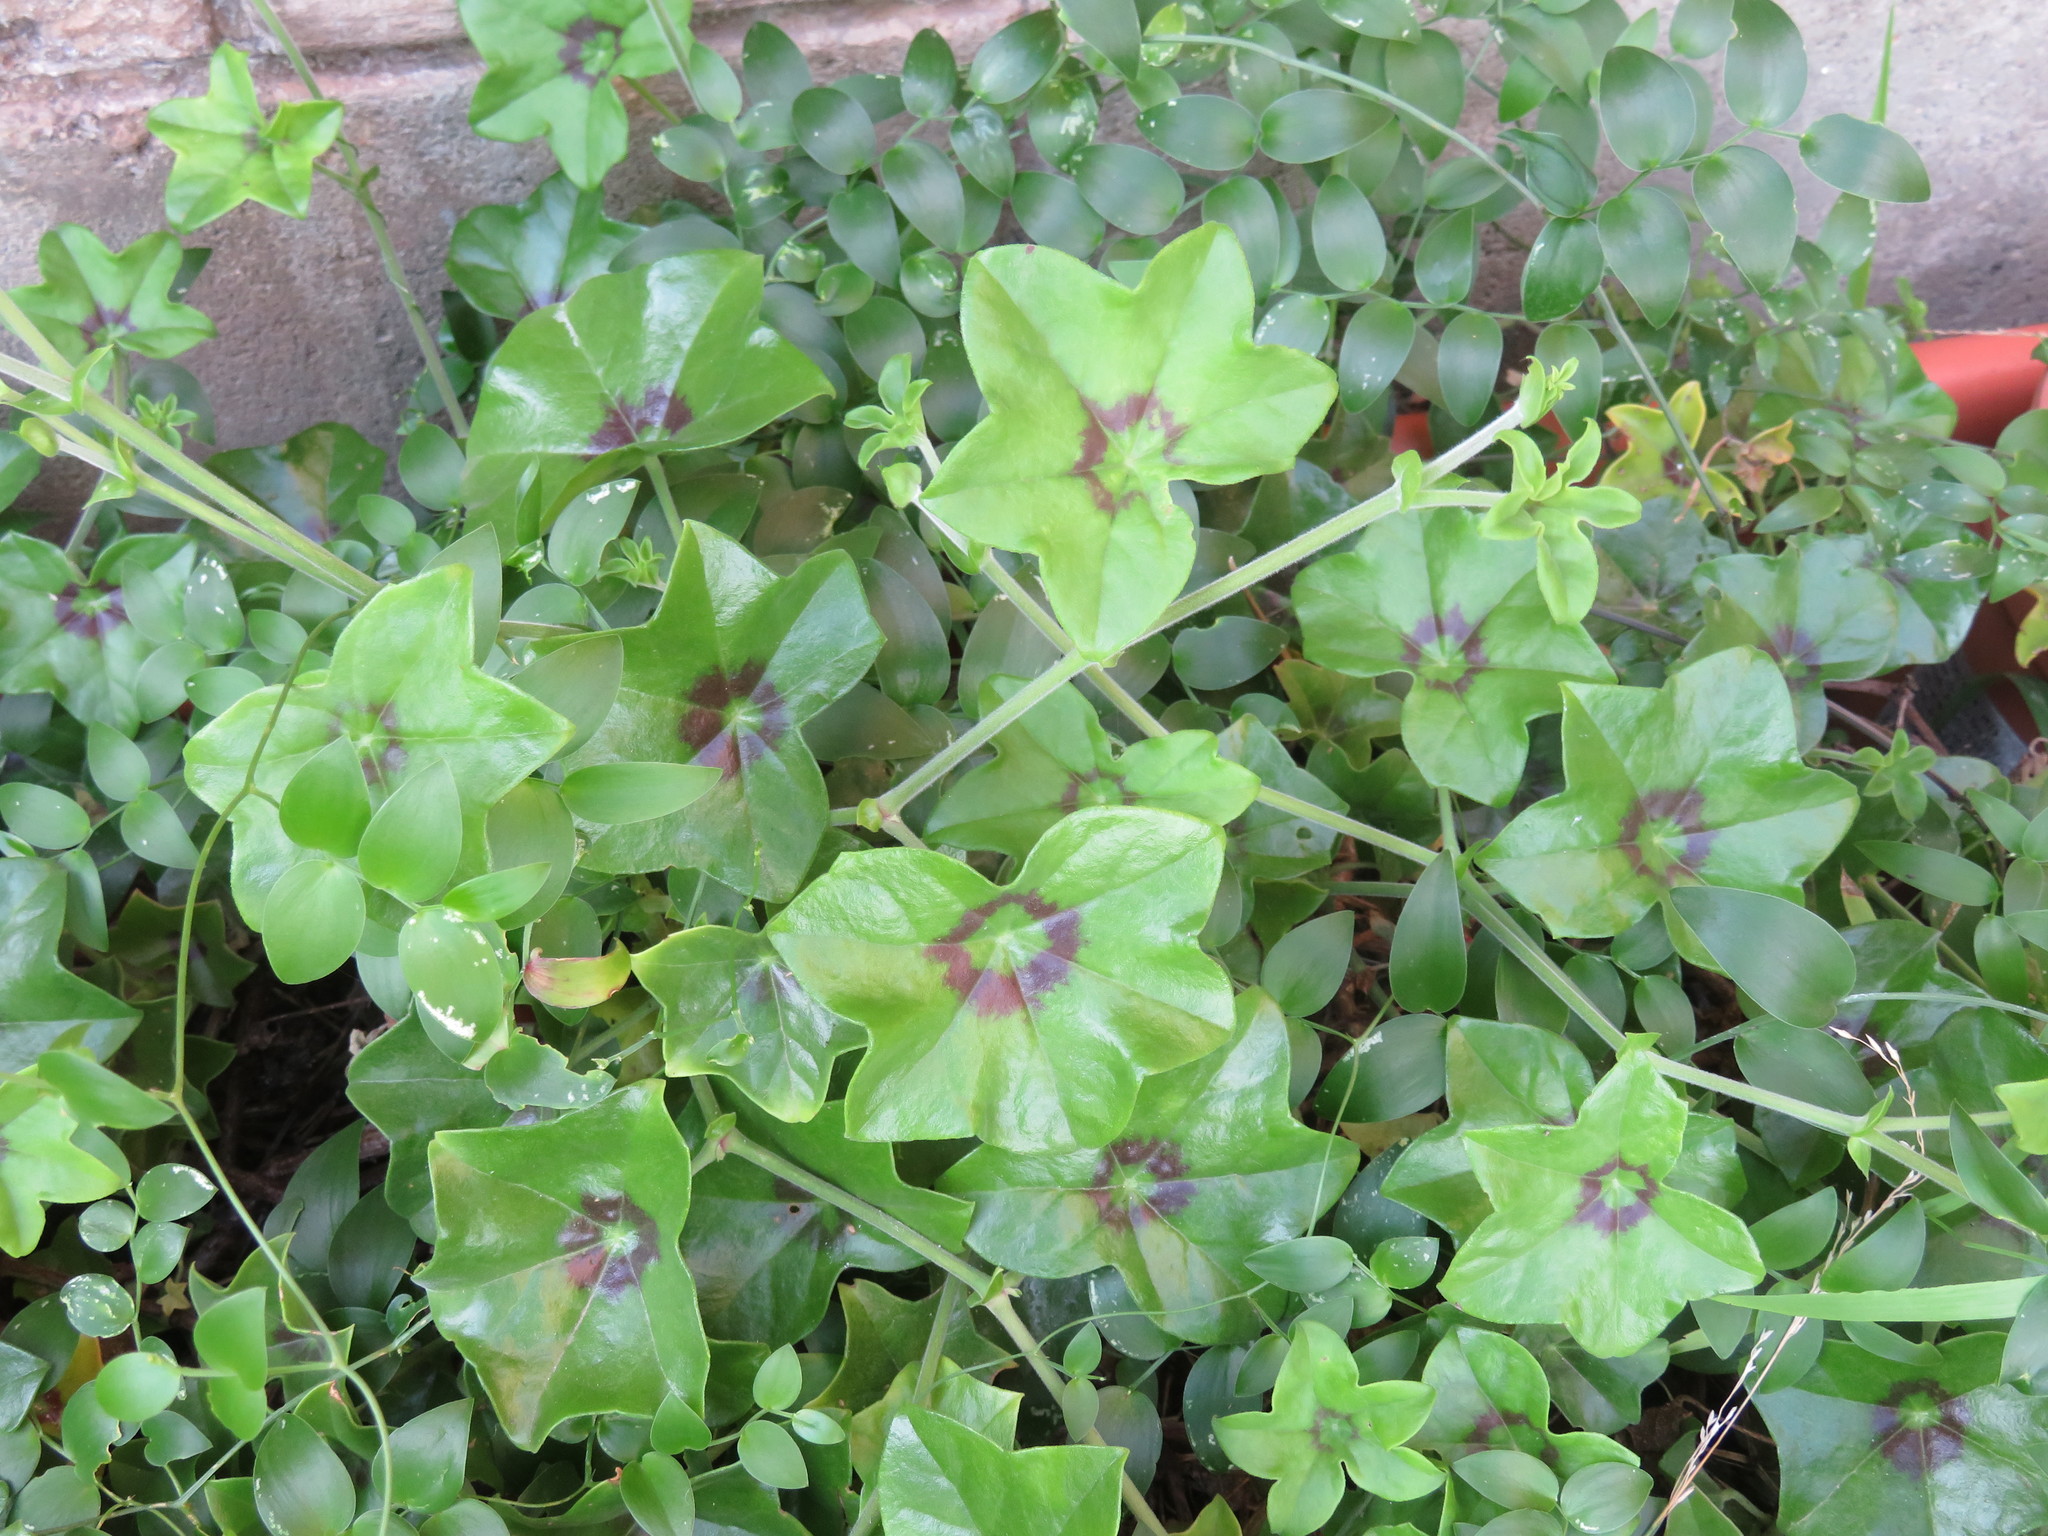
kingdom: Plantae
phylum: Tracheophyta
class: Magnoliopsida
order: Geraniales
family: Geraniaceae
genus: Pelargonium
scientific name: Pelargonium peltatum
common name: Ivyleaf geranium
